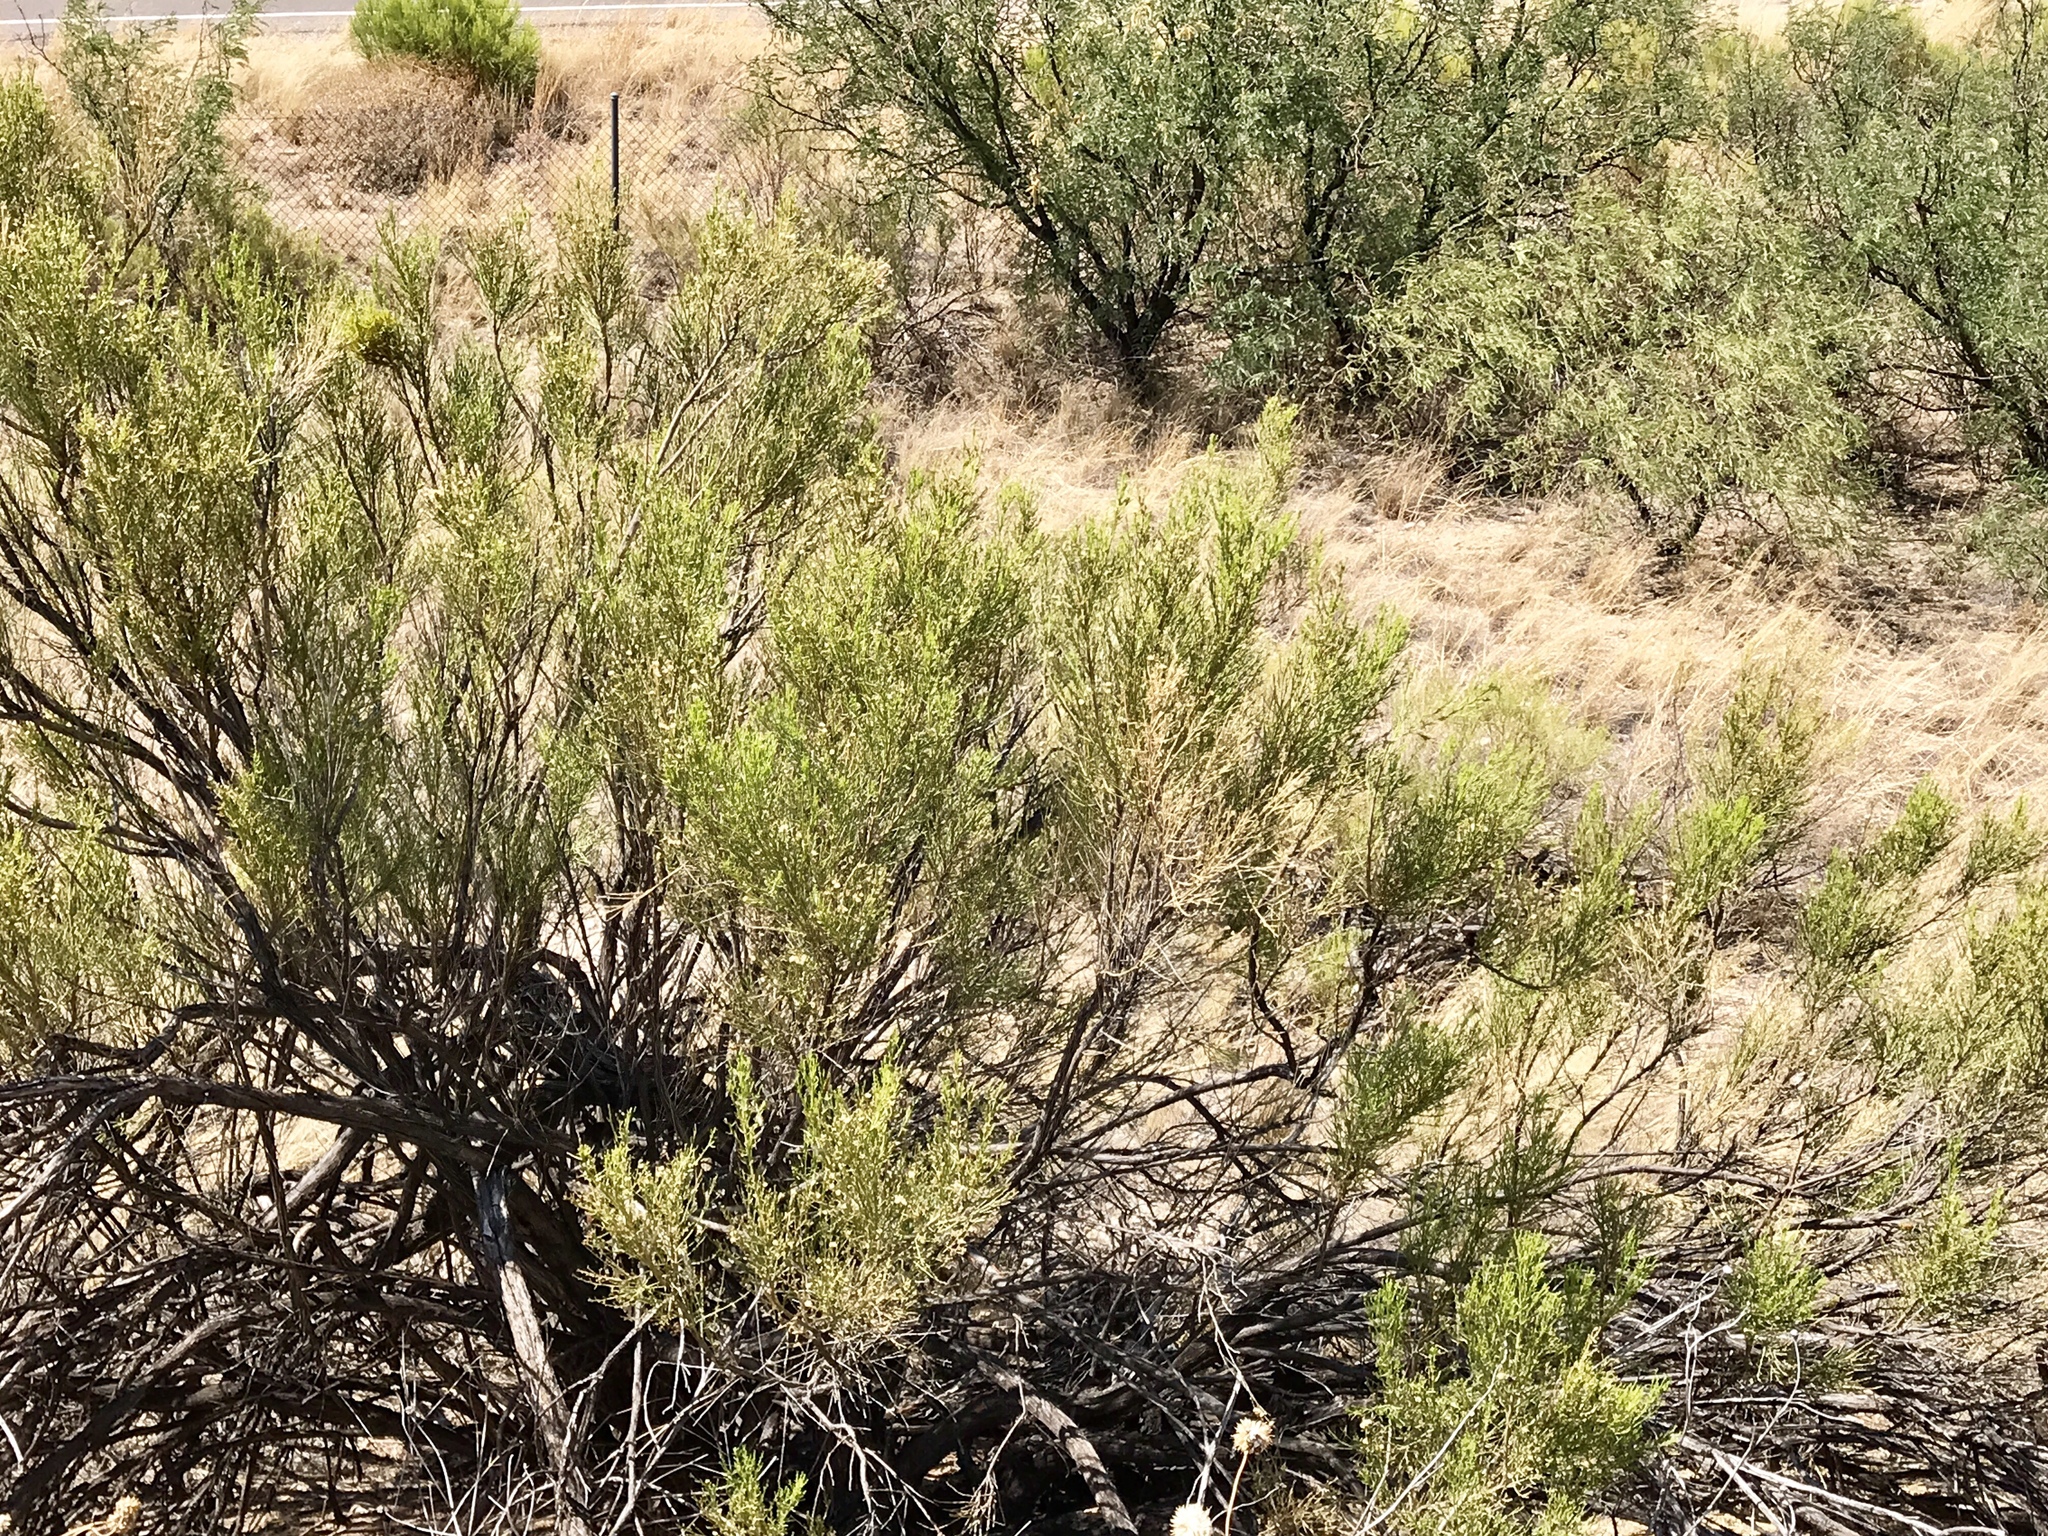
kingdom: Plantae
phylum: Tracheophyta
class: Magnoliopsida
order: Asterales
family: Asteraceae
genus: Baccharis
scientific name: Baccharis sarothroides
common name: Desert-broom
